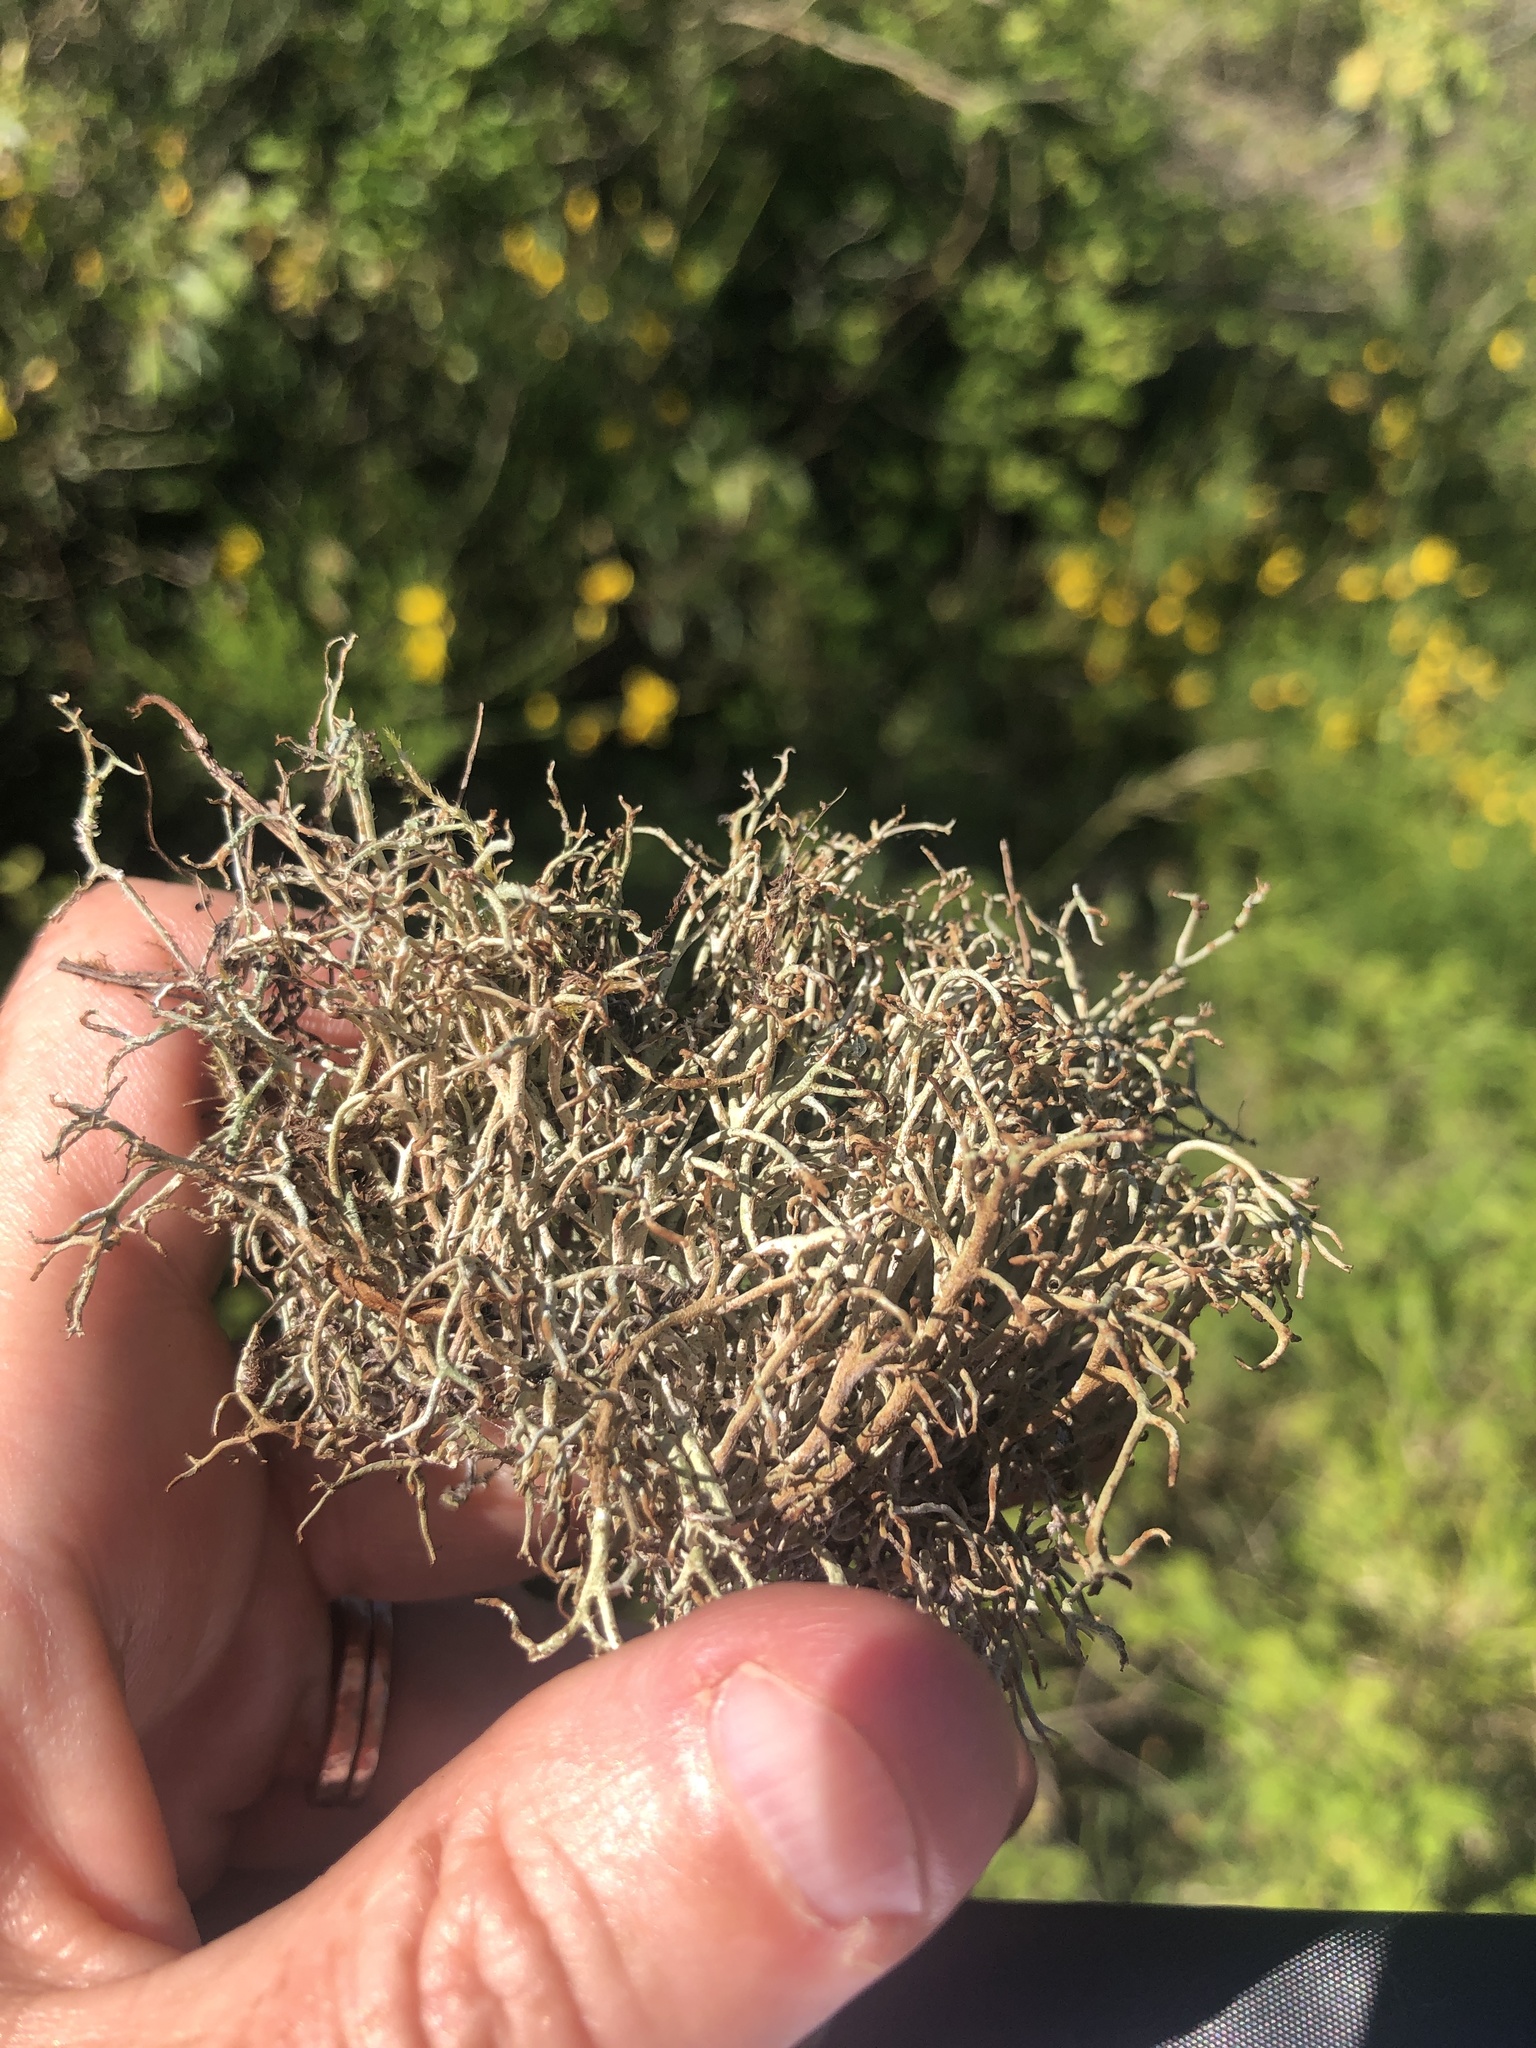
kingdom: Fungi
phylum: Ascomycota
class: Lecanoromycetes
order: Lecanorales
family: Cladoniaceae
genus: Cladonia
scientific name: Cladonia furcata
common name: Many-forked cladonia
